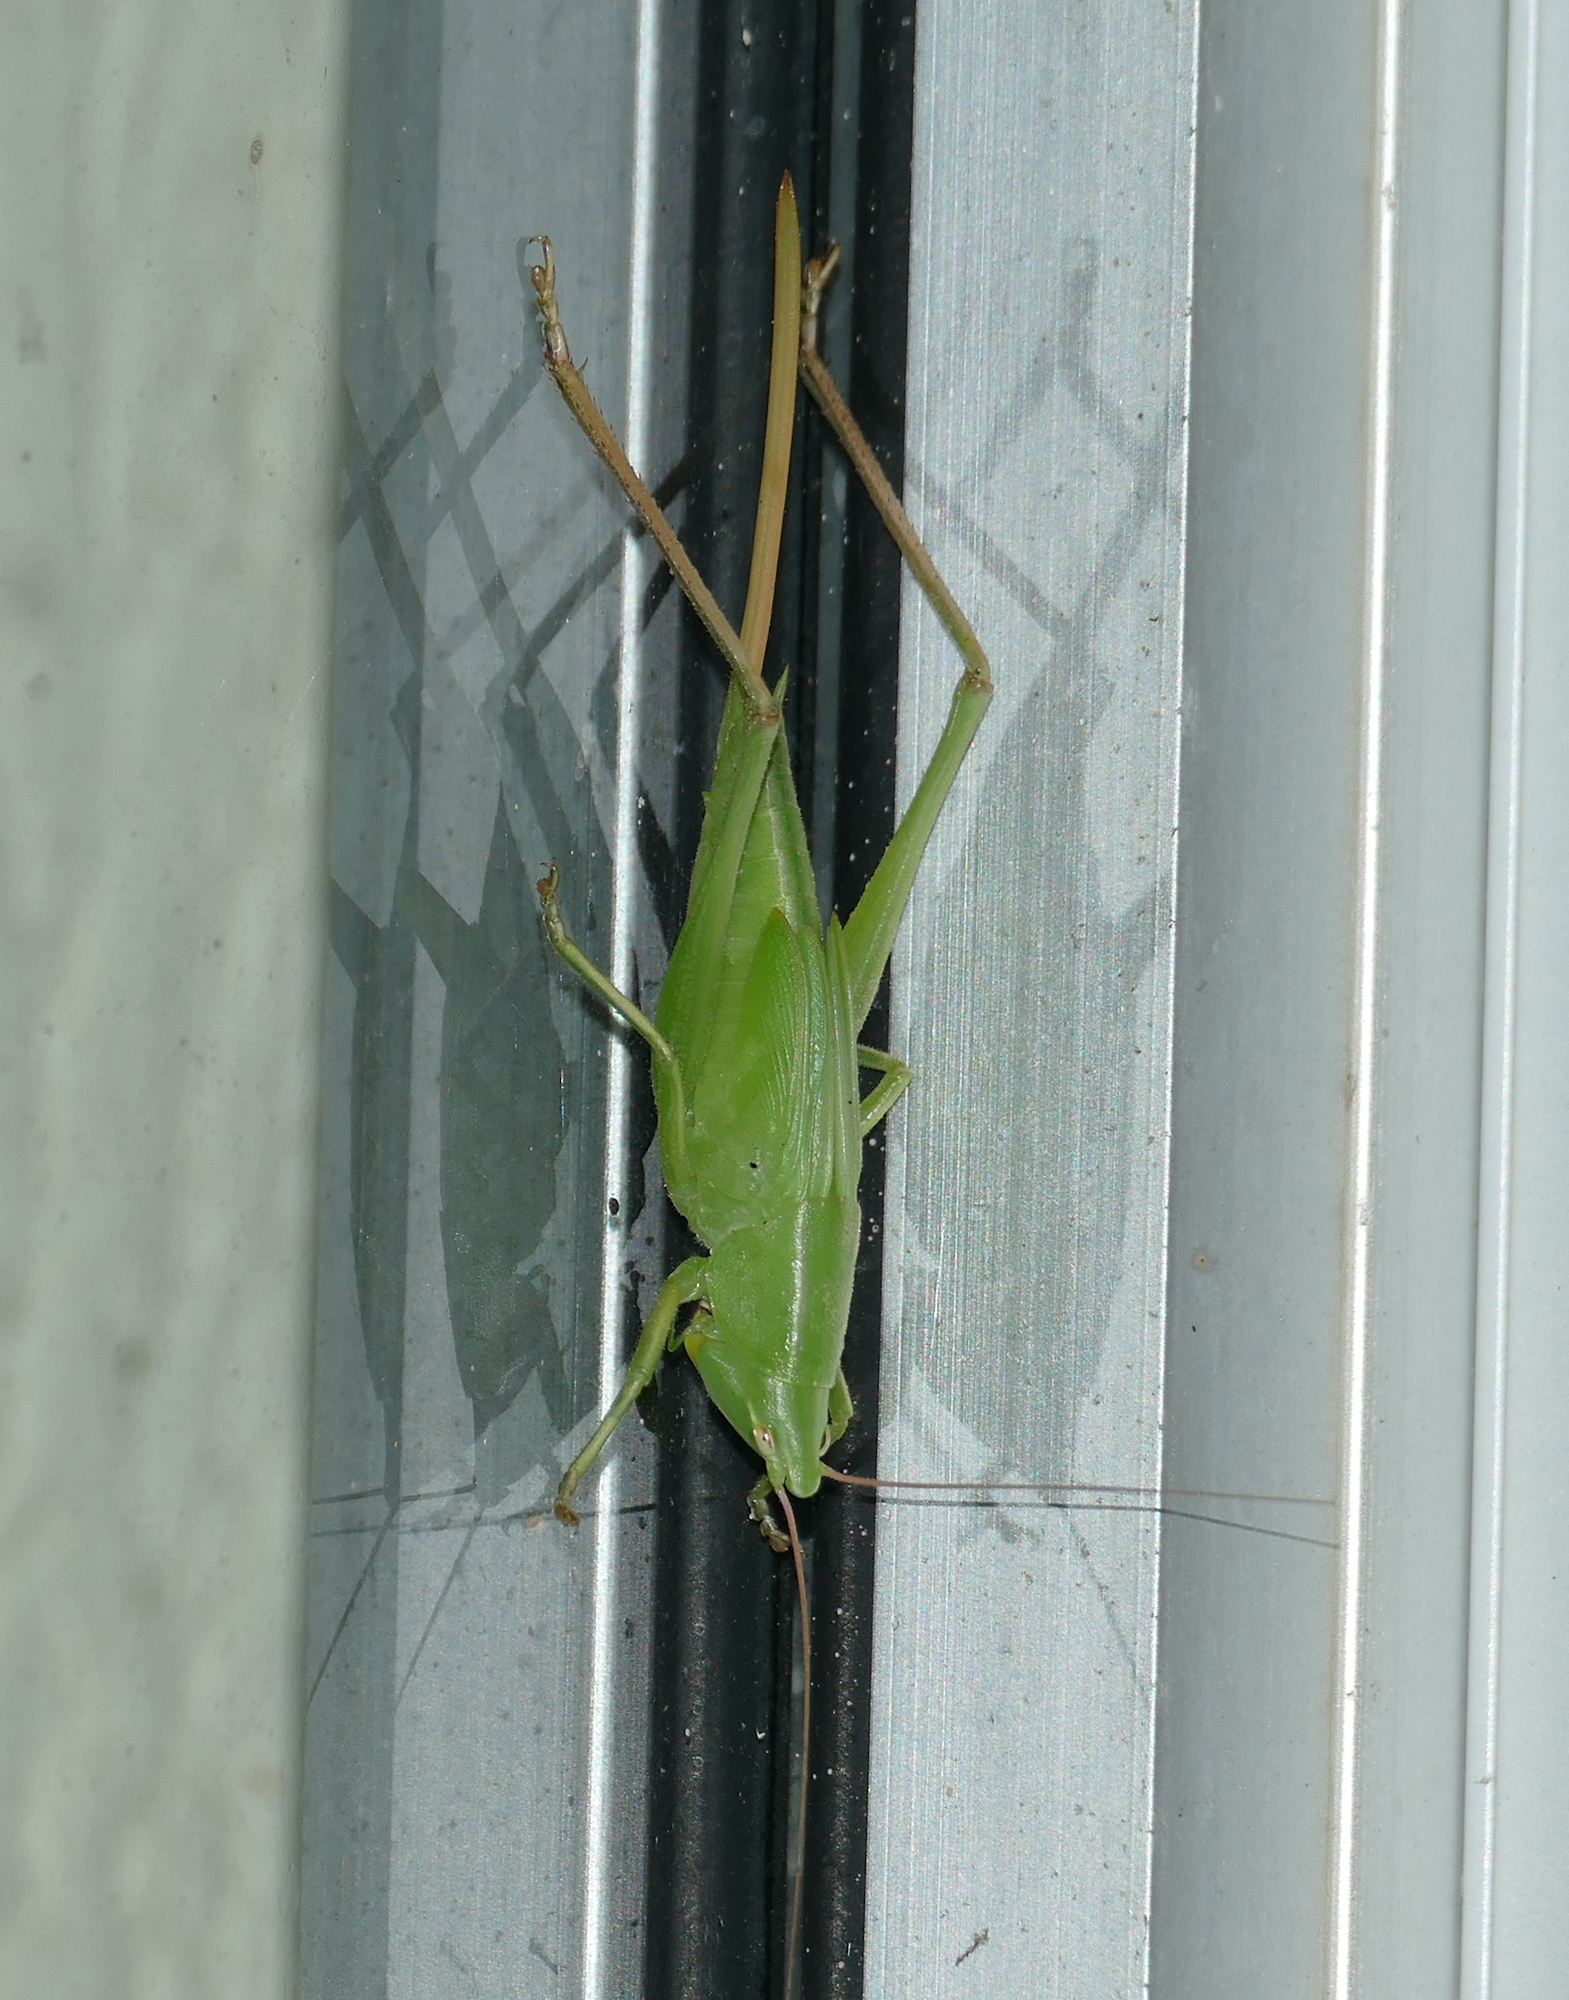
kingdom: Animalia
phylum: Arthropoda
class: Insecta
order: Orthoptera
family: Tettigoniidae
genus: Neoconocephalus
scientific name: Neoconocephalus triops
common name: Broad-tipped conehead
